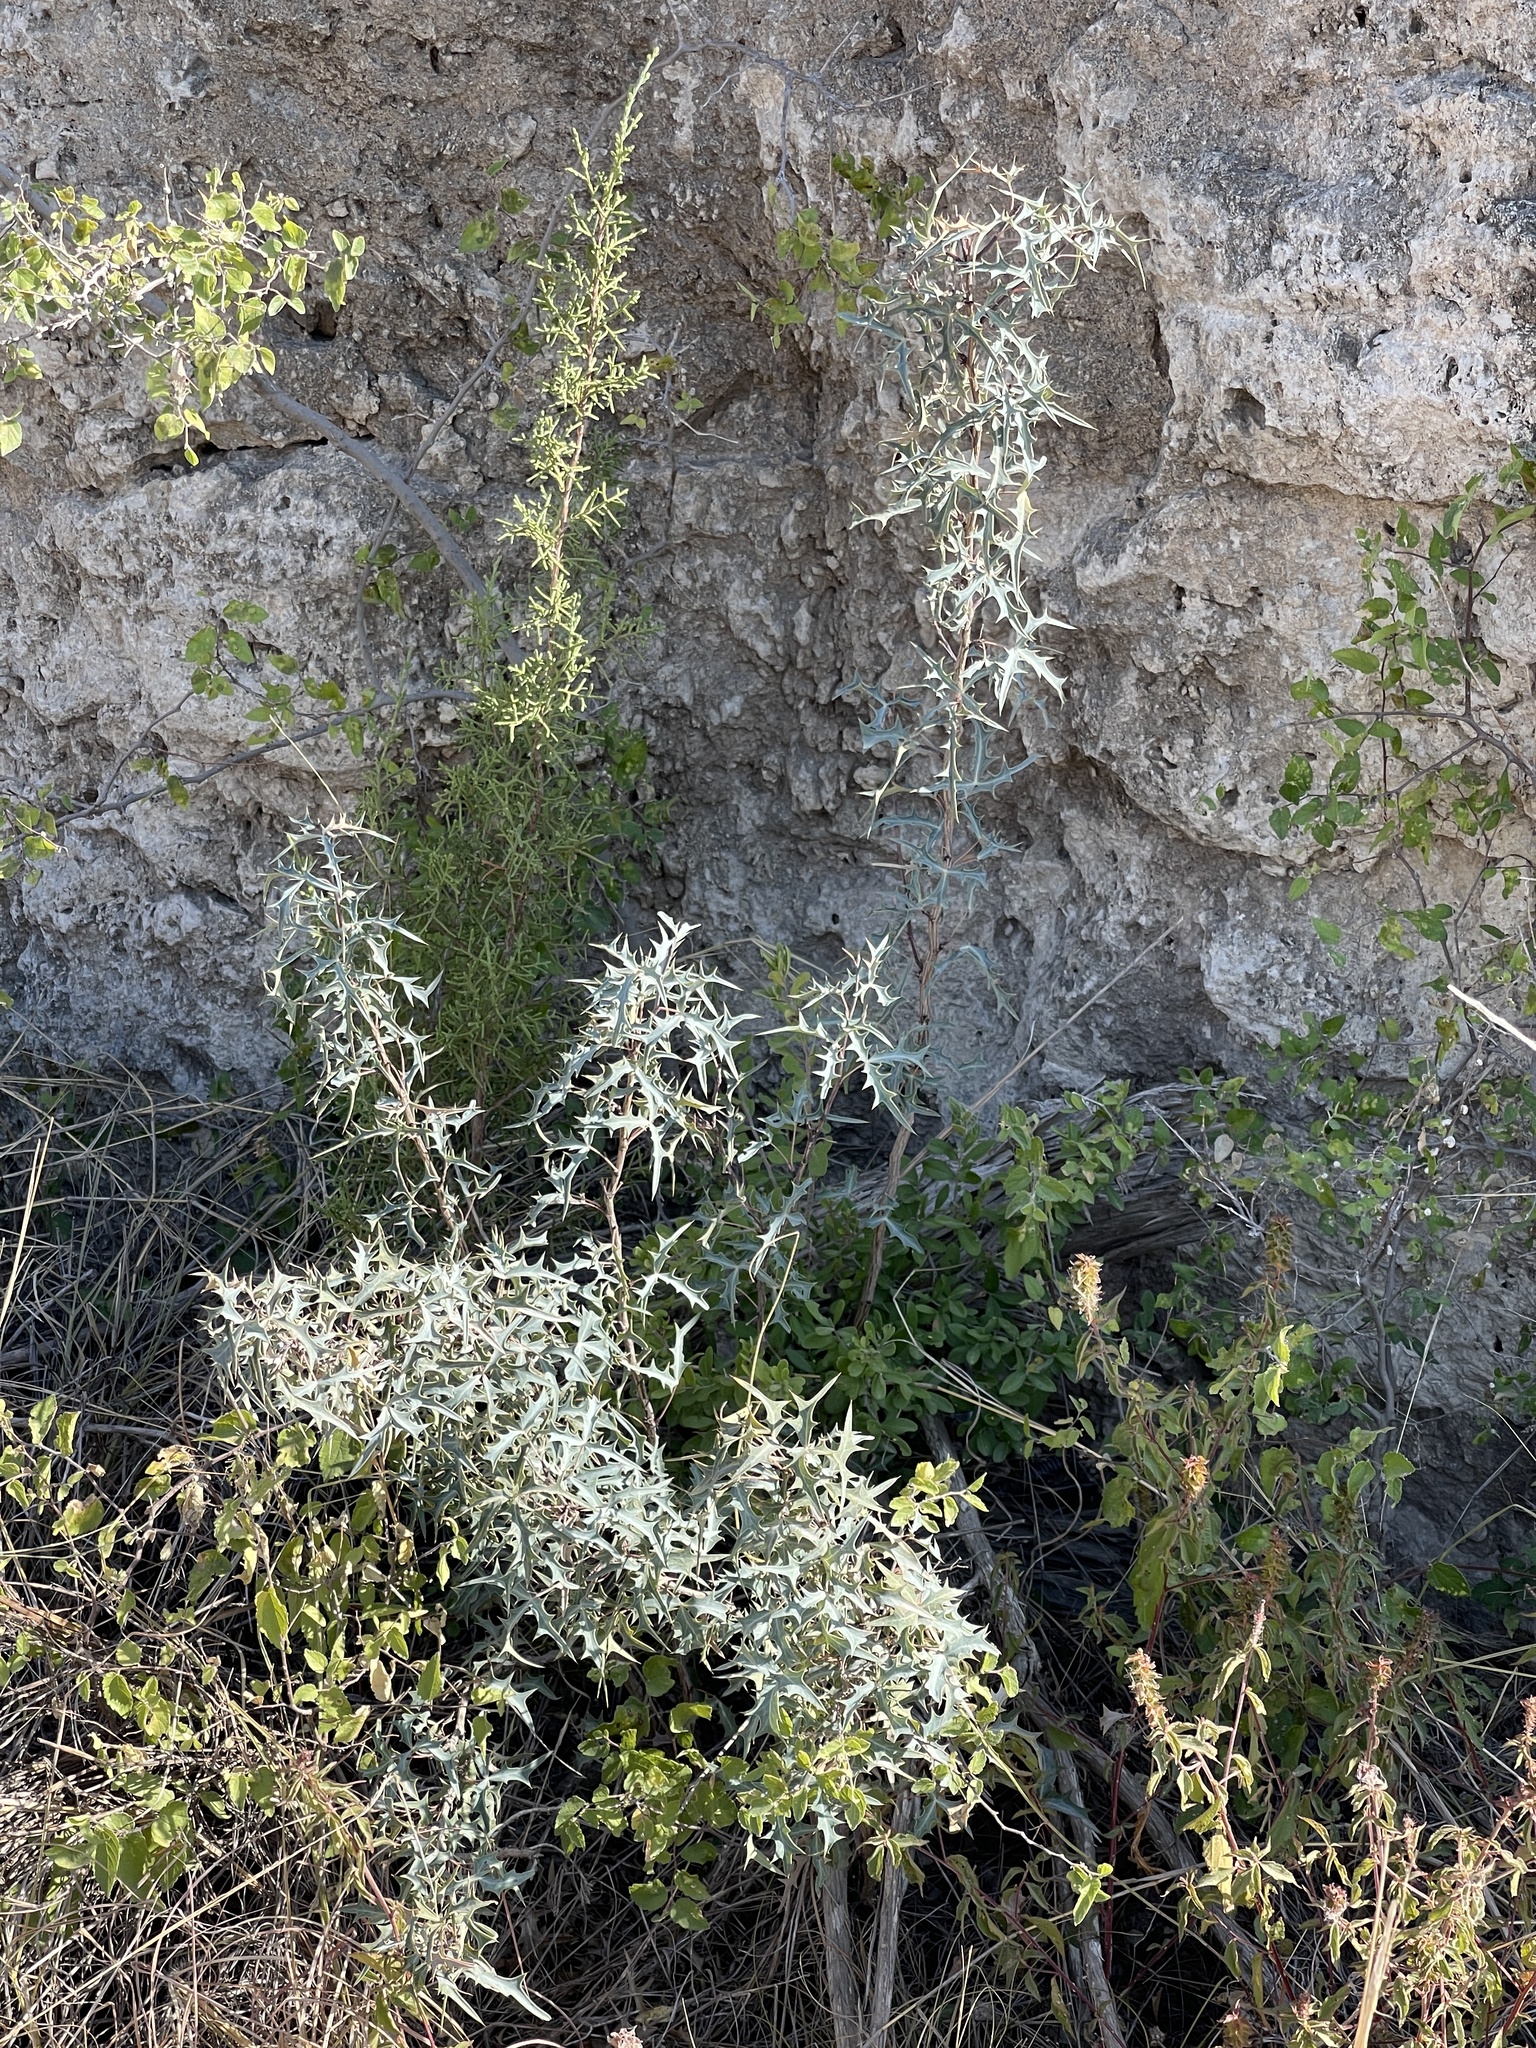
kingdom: Plantae
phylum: Tracheophyta
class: Magnoliopsida
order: Ranunculales
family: Berberidaceae
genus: Alloberberis
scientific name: Alloberberis trifoliolata
